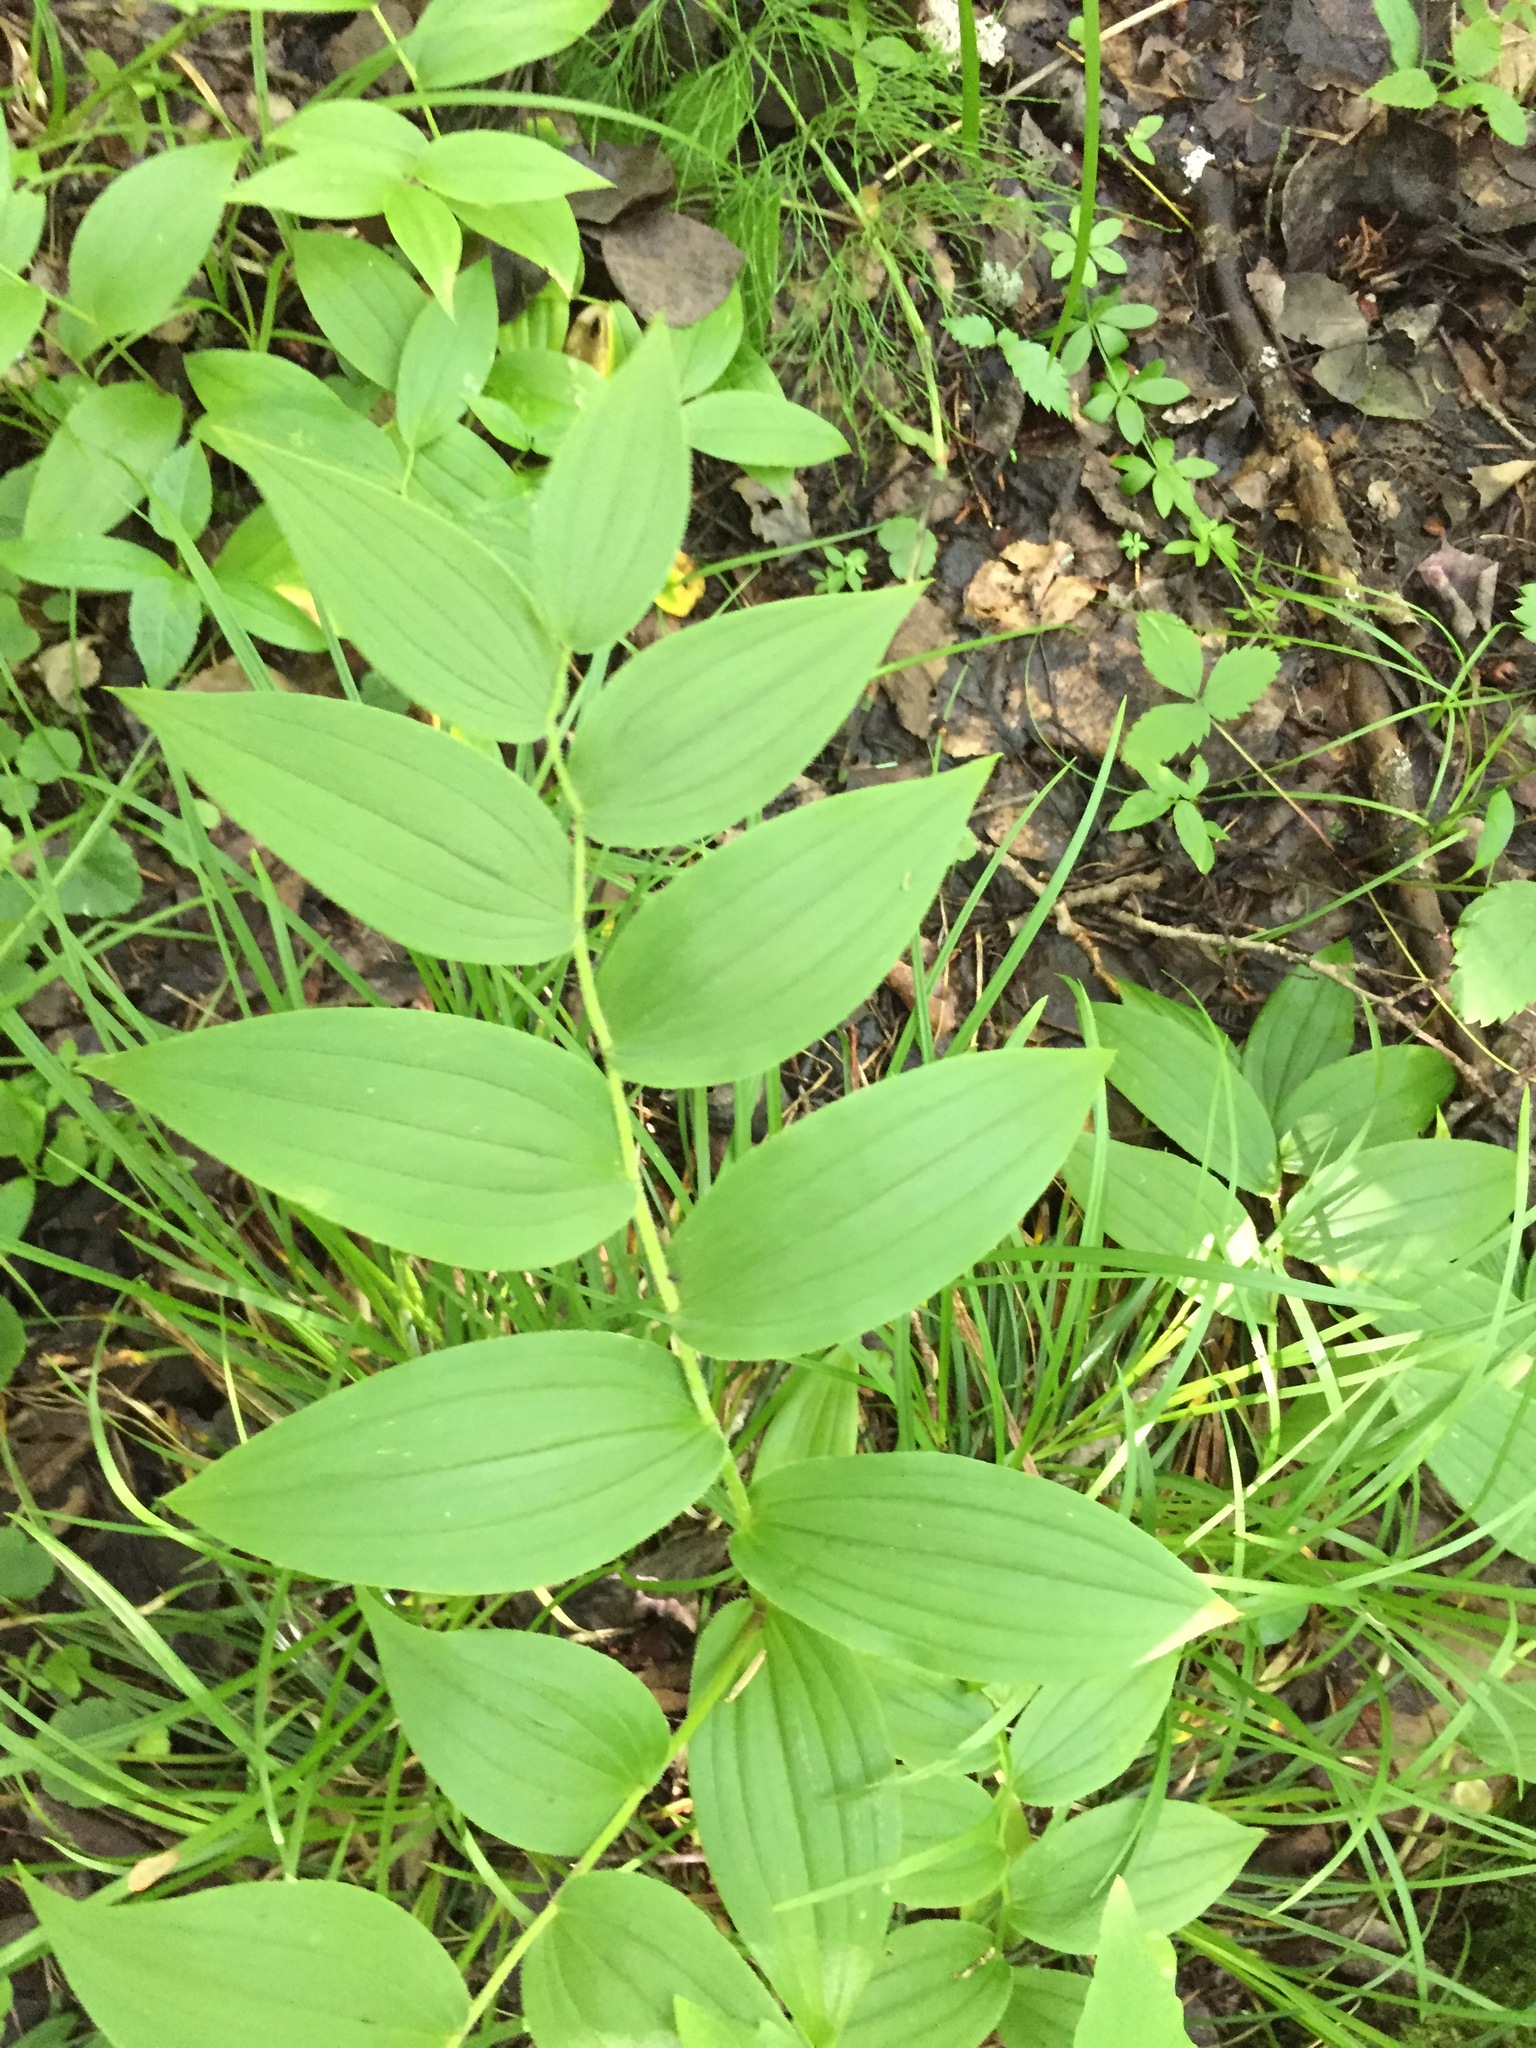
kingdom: Plantae
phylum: Tracheophyta
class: Liliopsida
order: Liliales
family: Liliaceae
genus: Streptopus
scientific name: Streptopus lanceolatus
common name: Rose mandarin
